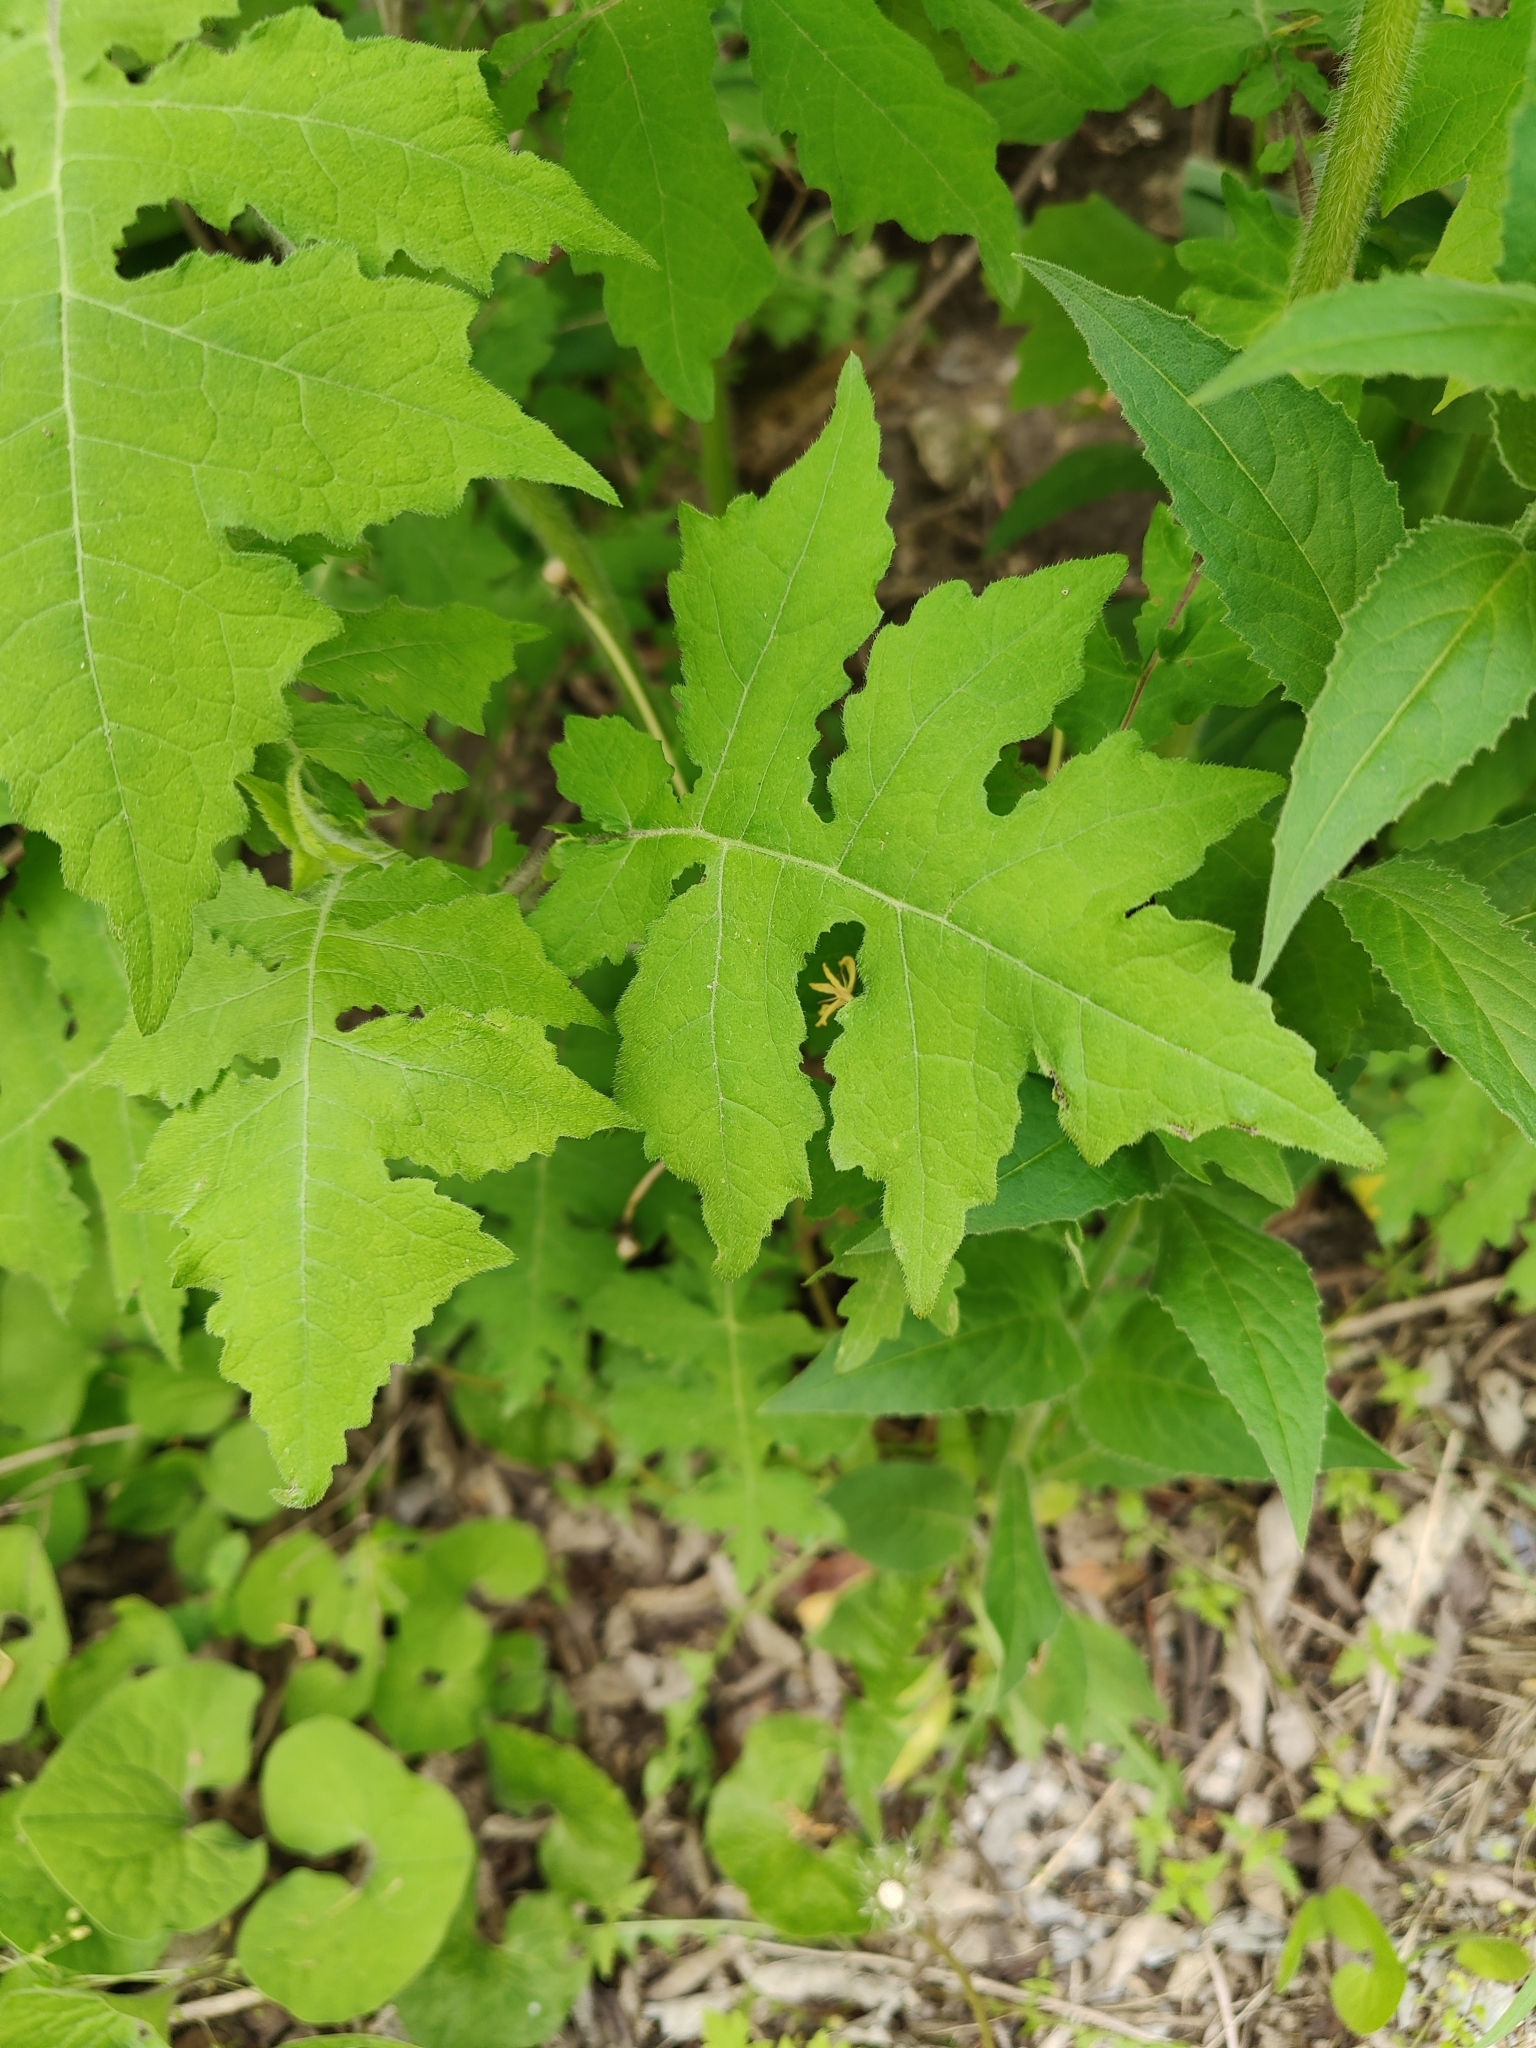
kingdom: Plantae
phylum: Tracheophyta
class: Magnoliopsida
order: Asterales
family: Asteraceae
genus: Polymnia
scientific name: Polymnia canadensis
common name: Pale-flowered leafcup
